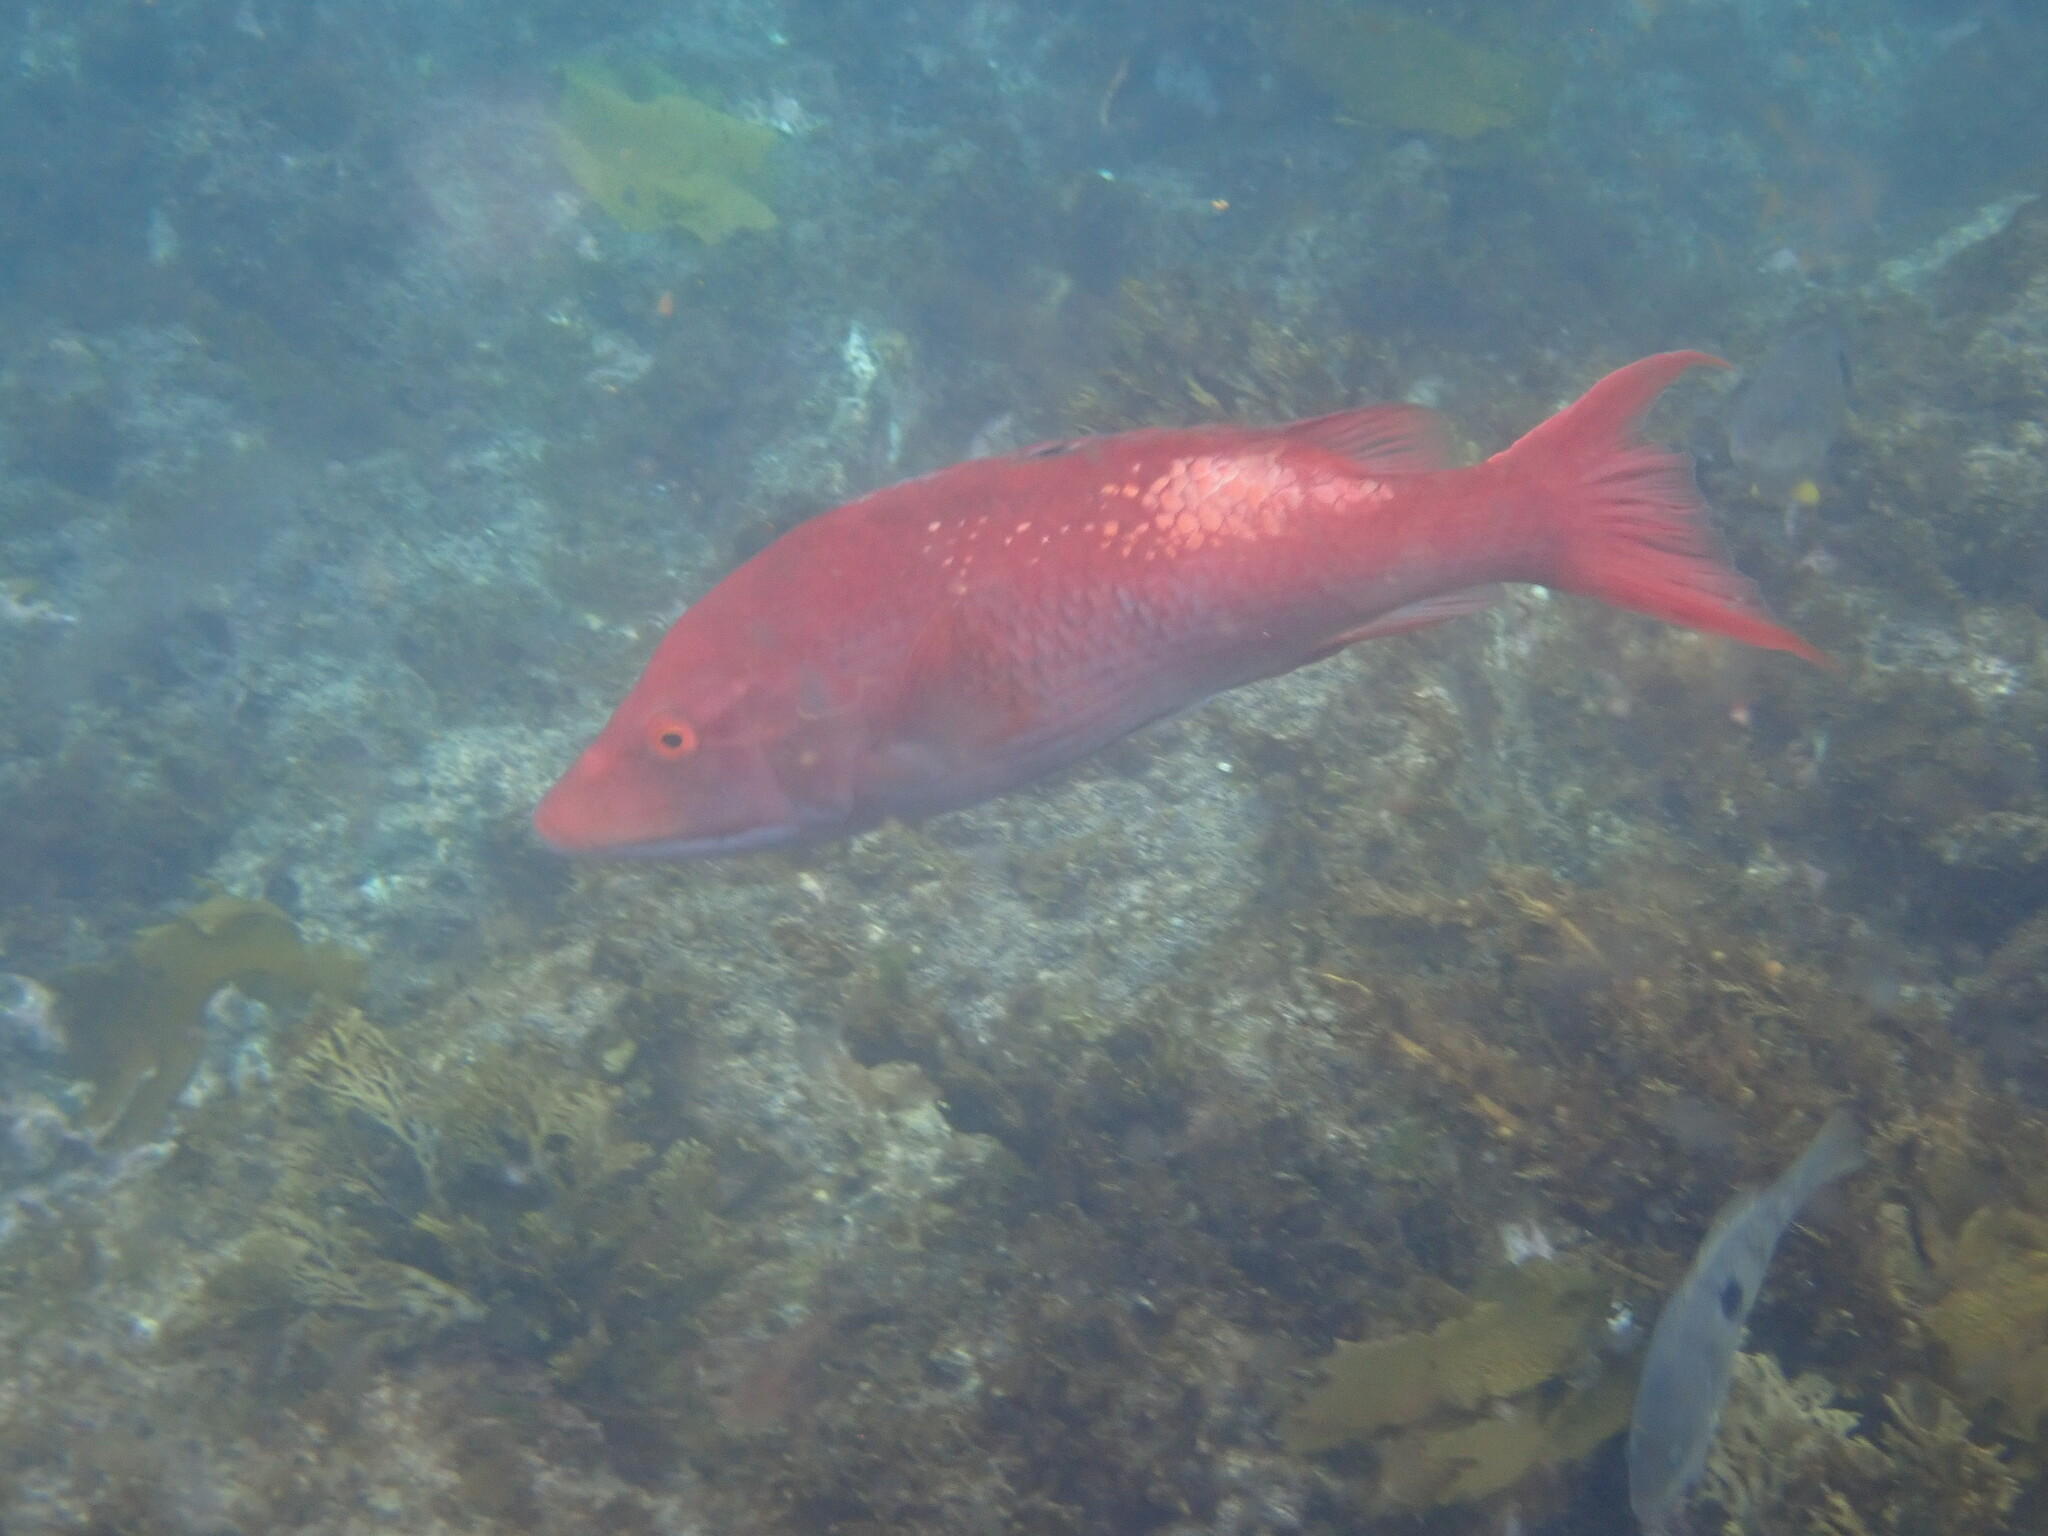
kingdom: Animalia
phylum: Chordata
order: Perciformes
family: Labridae
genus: Bodianus
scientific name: Bodianus unimaculatus
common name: Pigfish
